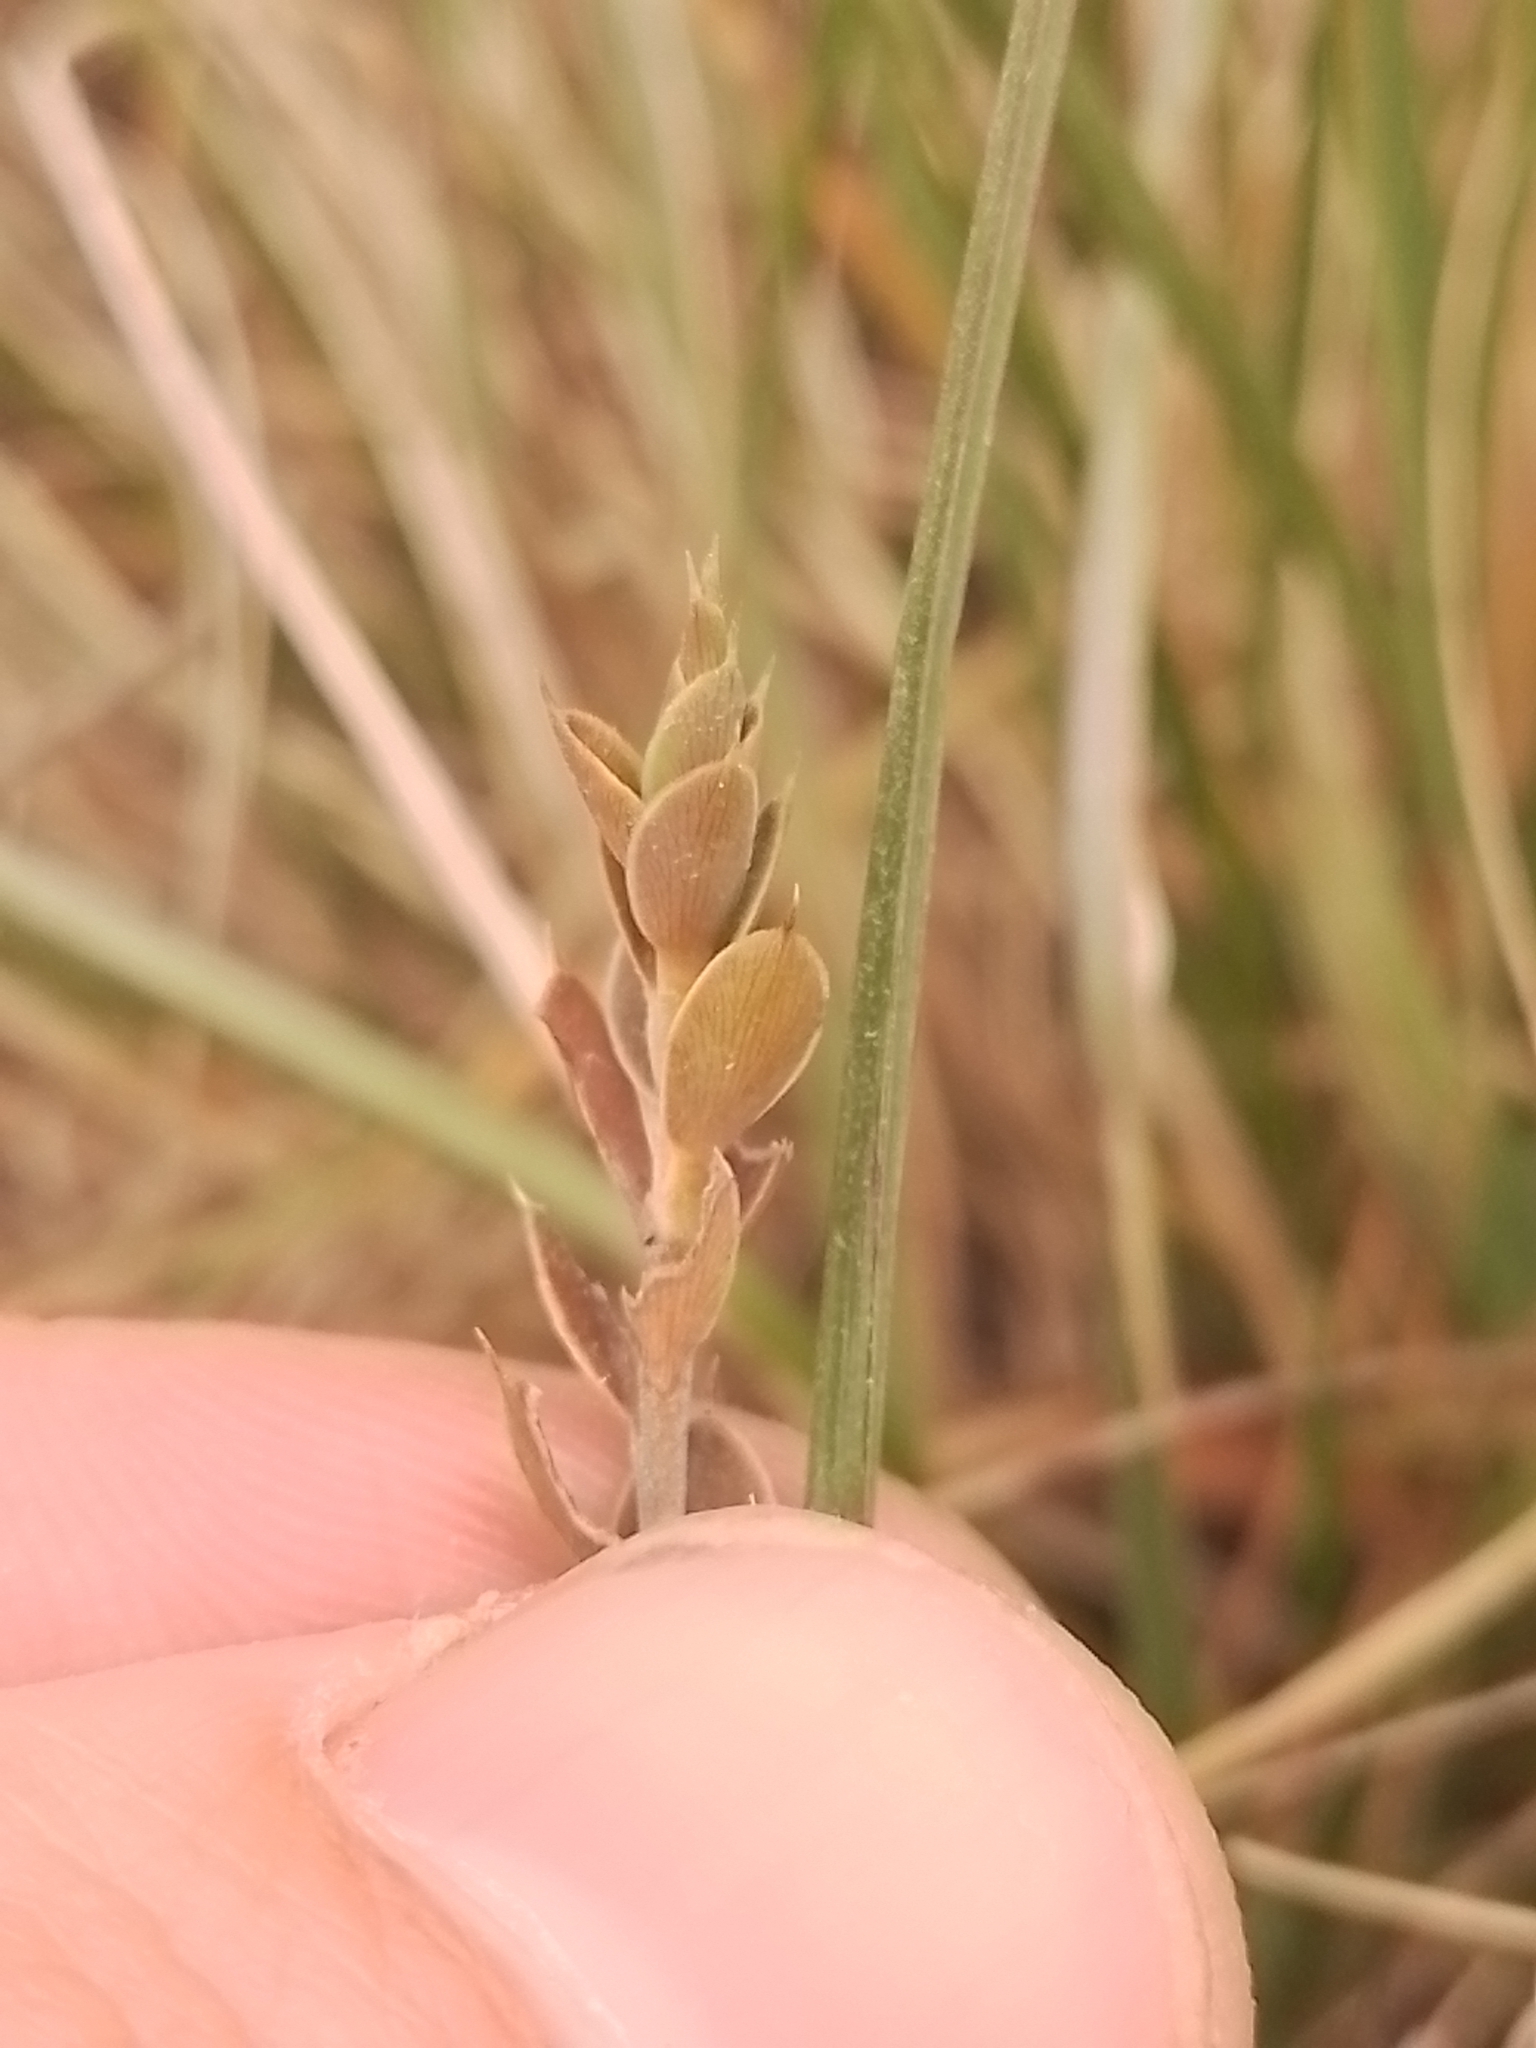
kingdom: Plantae
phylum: Tracheophyta
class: Magnoliopsida
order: Ericales
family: Ericaceae
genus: Styphelia
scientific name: Styphelia nesophila
